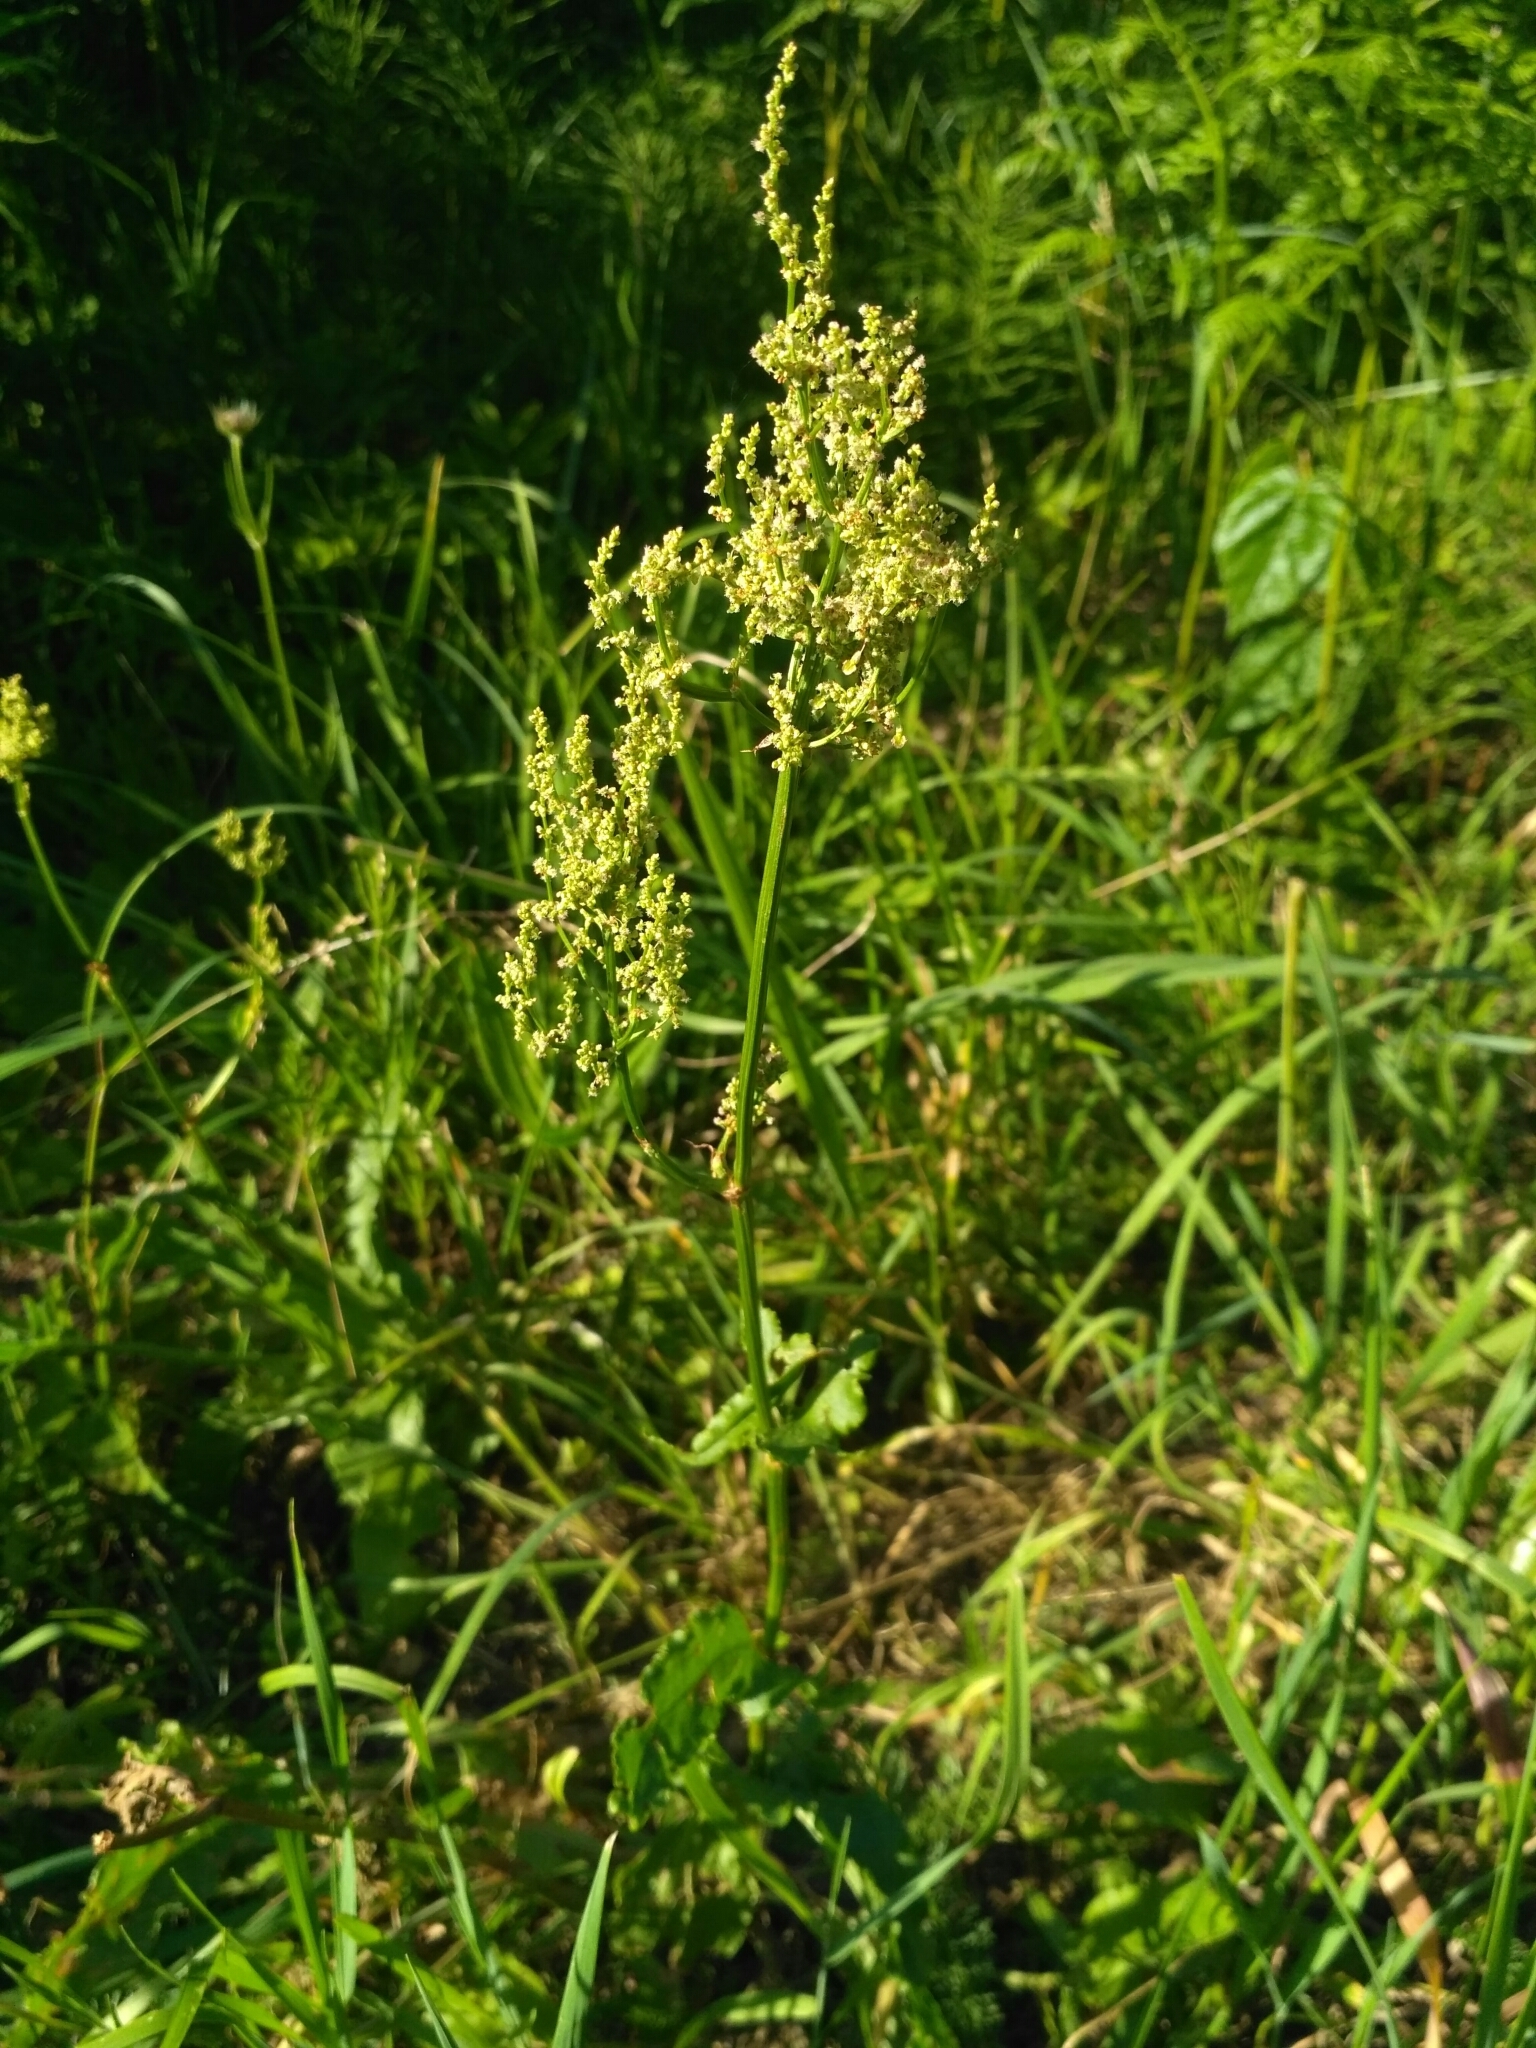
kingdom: Plantae
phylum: Tracheophyta
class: Magnoliopsida
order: Caryophyllales
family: Polygonaceae
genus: Rumex
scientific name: Rumex thyrsiflorus
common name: Garden sorrel
